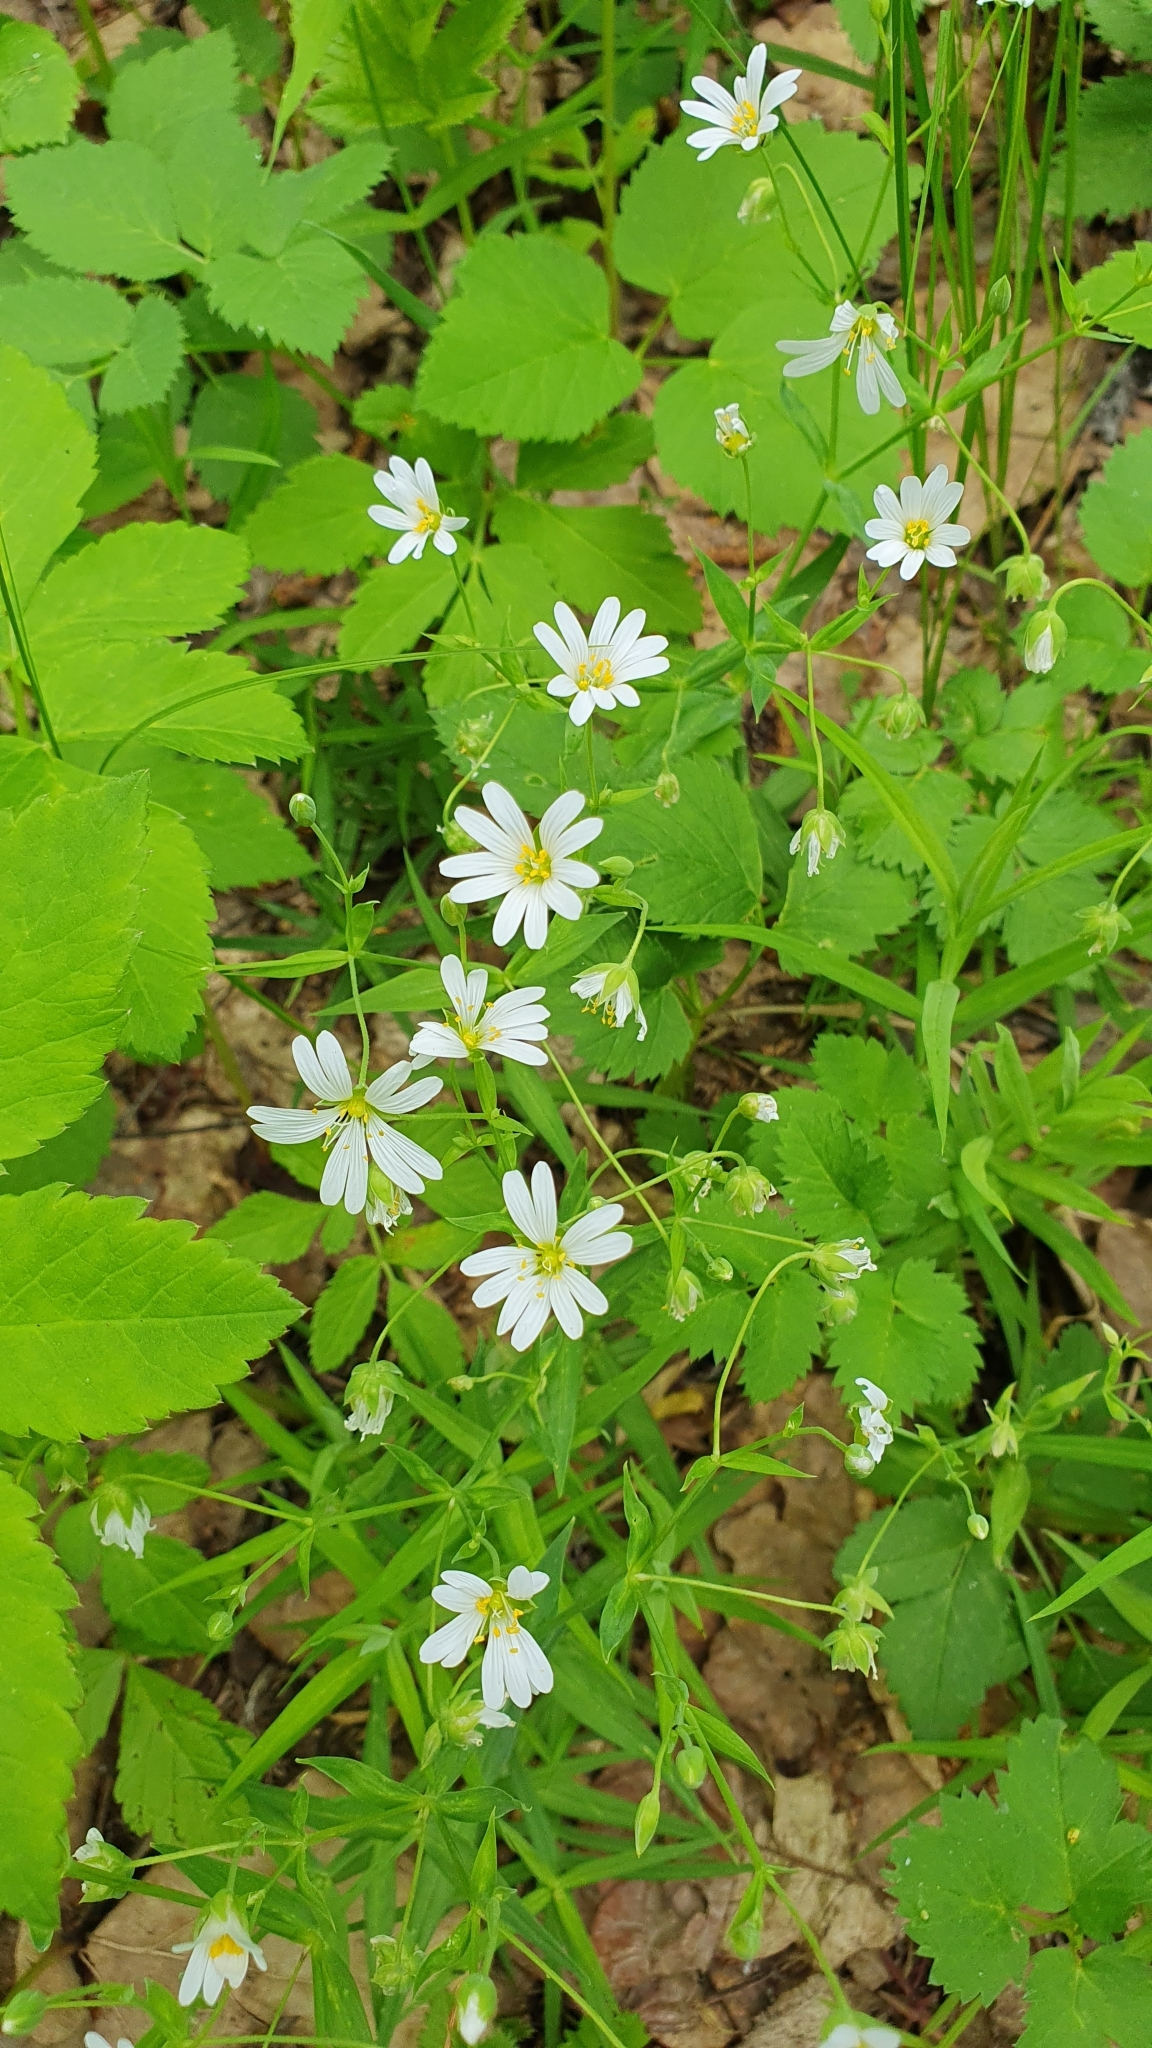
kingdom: Plantae
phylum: Tracheophyta
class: Magnoliopsida
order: Caryophyllales
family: Caryophyllaceae
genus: Rabelera
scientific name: Rabelera holostea
